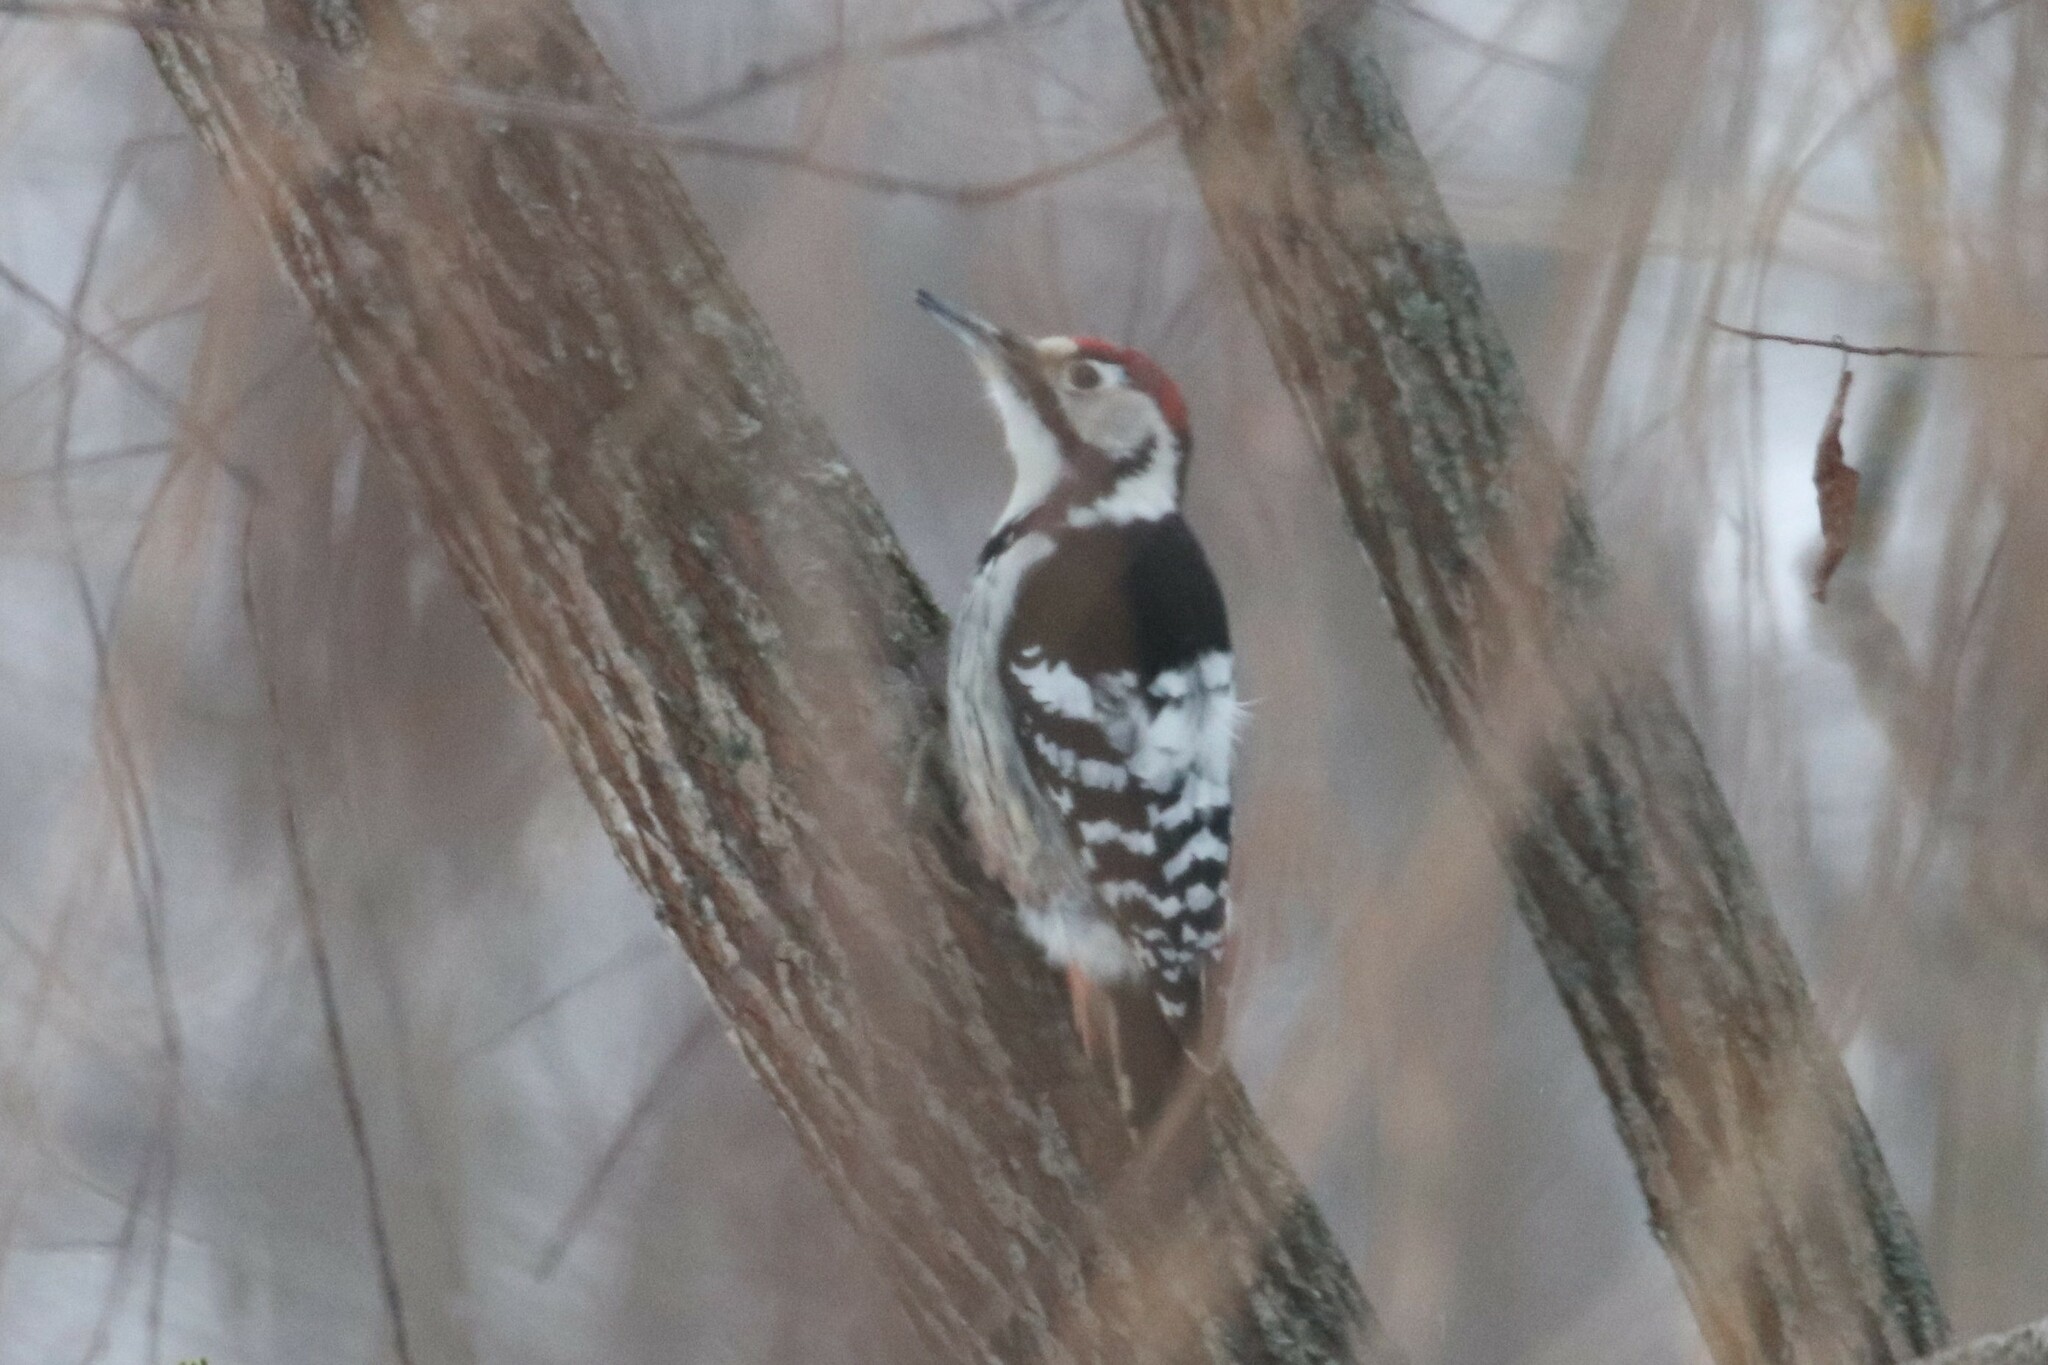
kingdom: Animalia
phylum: Chordata
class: Aves
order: Piciformes
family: Picidae
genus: Dendrocopos
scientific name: Dendrocopos leucotos
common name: White-backed woodpecker
